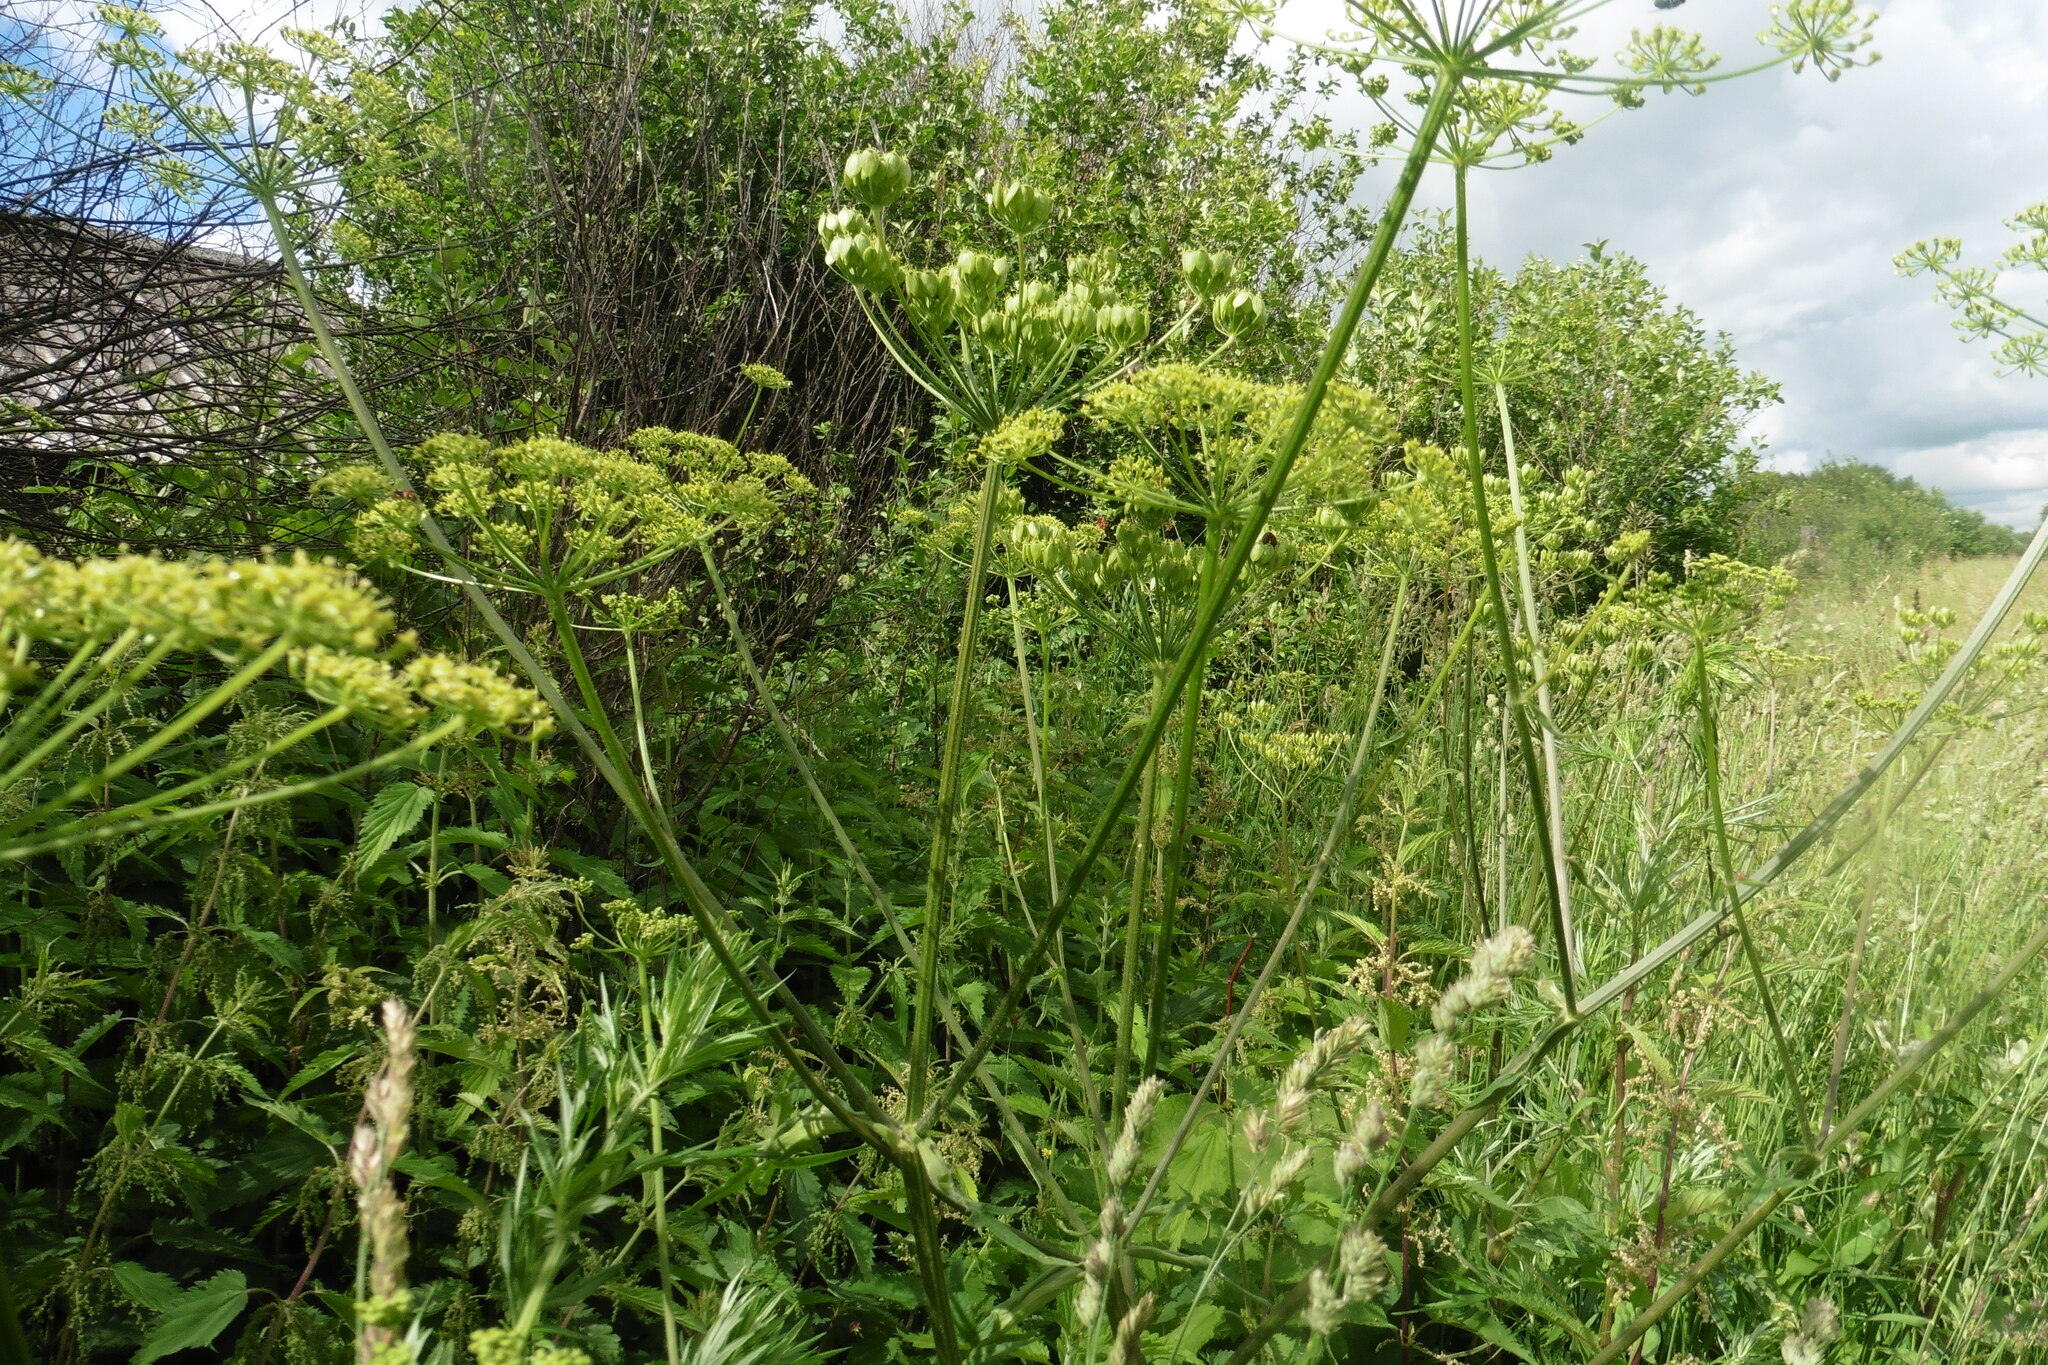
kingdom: Plantae
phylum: Tracheophyta
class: Magnoliopsida
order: Apiales
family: Apiaceae
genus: Heracleum
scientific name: Heracleum sphondylium
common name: Hogweed
